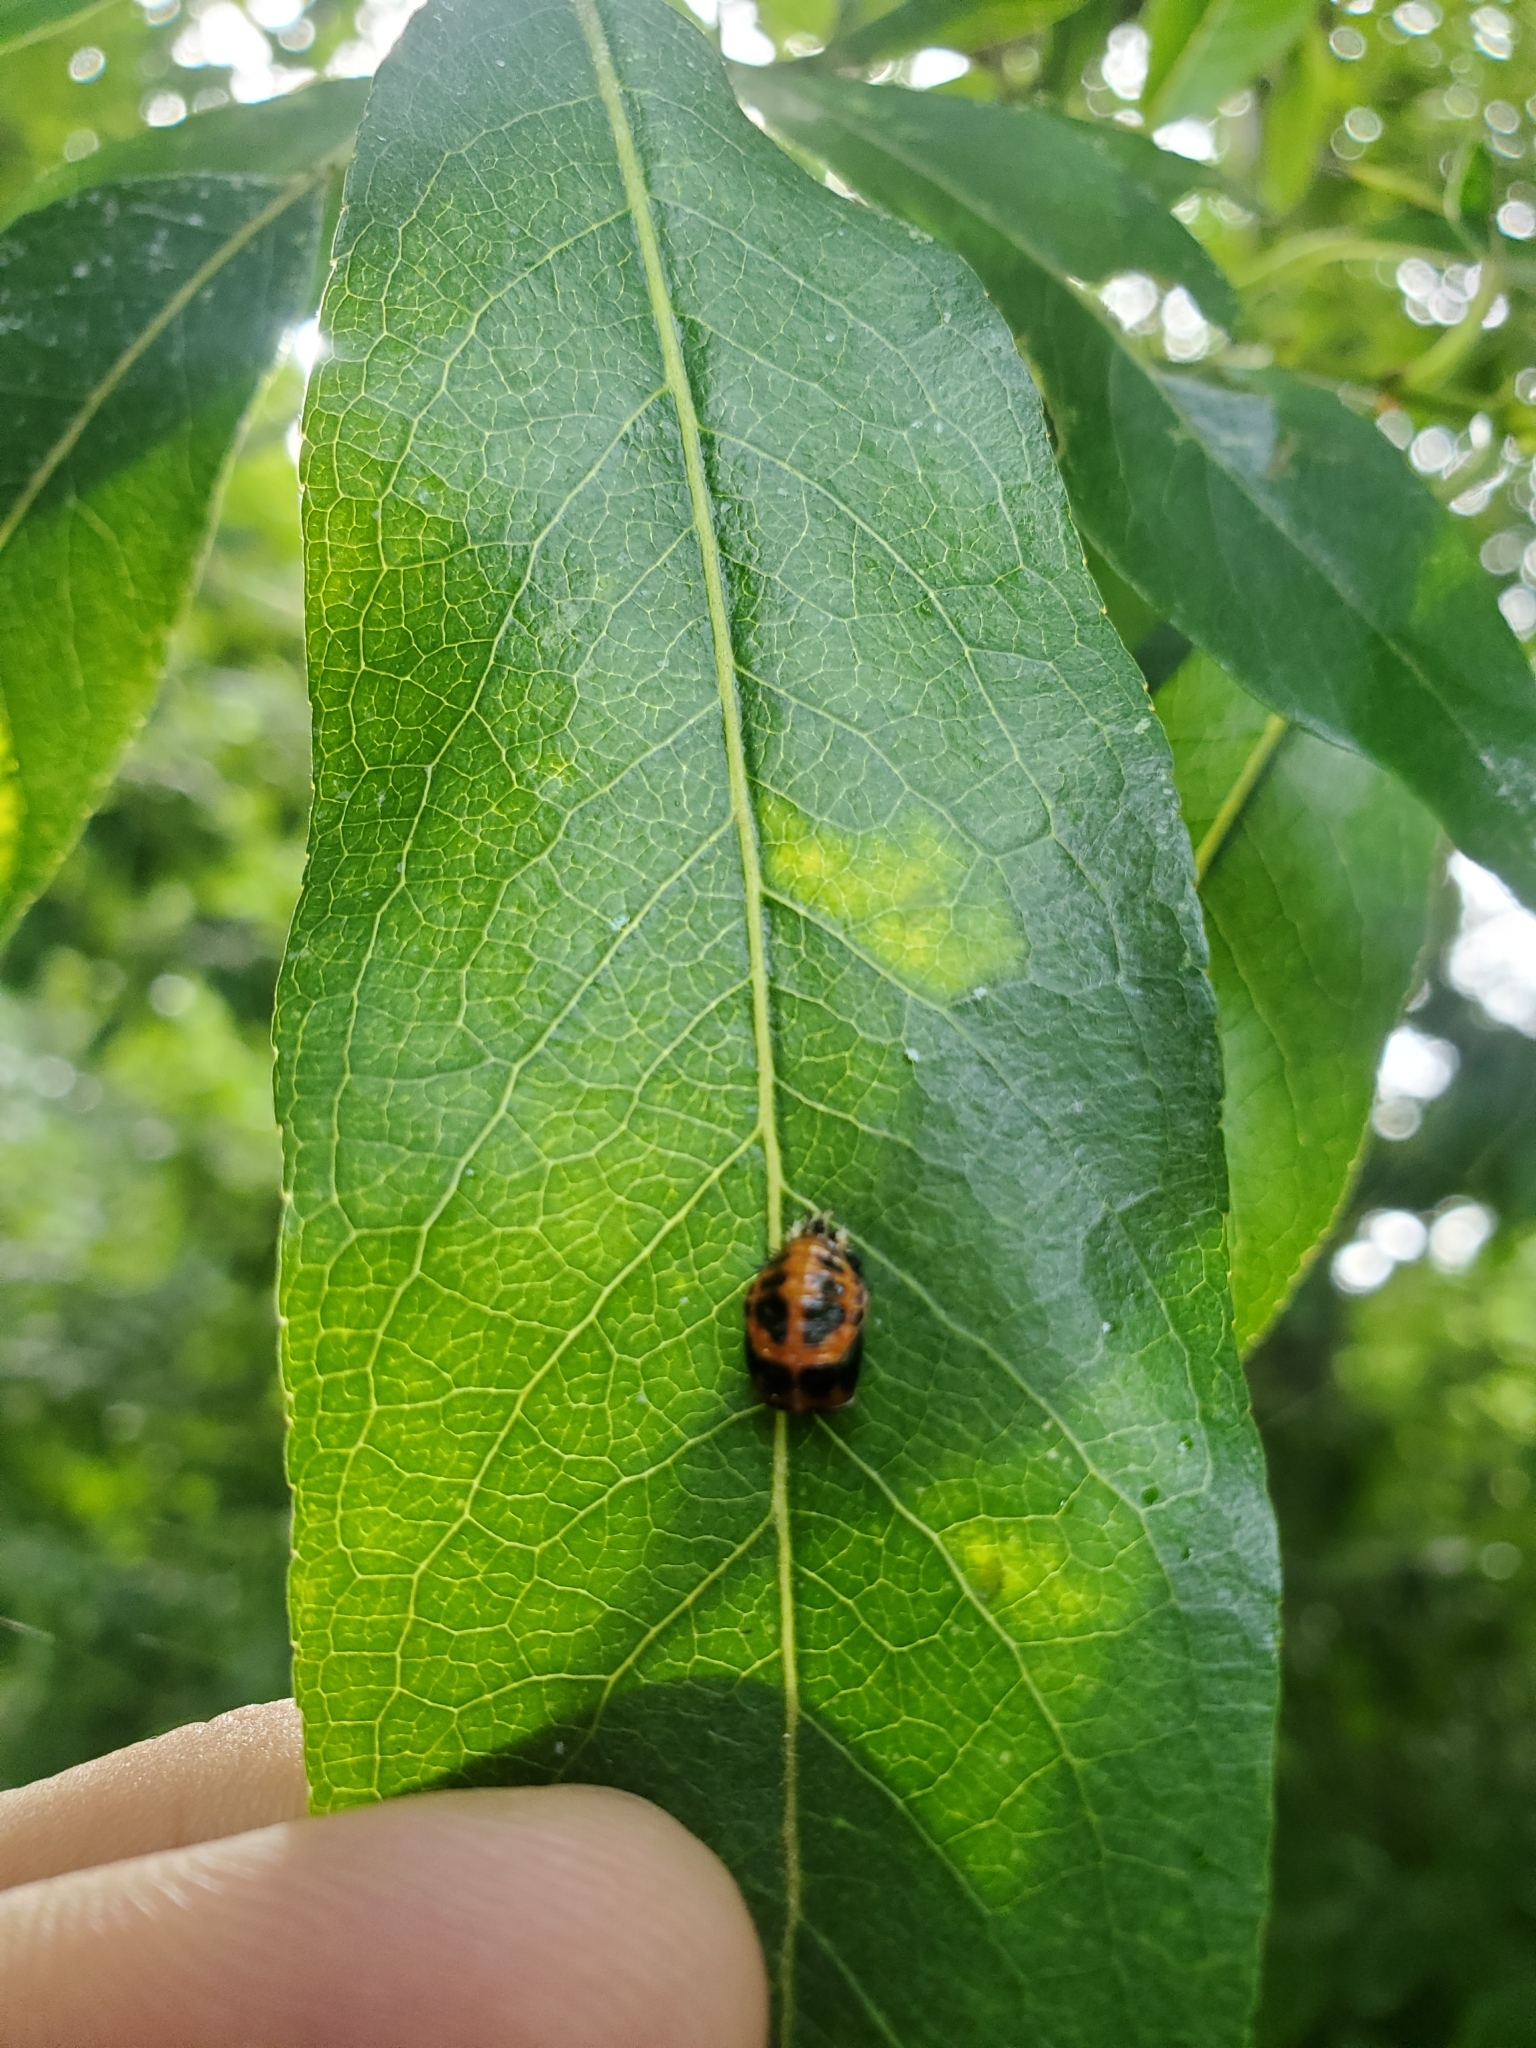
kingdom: Animalia
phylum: Arthropoda
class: Insecta
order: Coleoptera
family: Coccinellidae
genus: Harmonia
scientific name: Harmonia axyridis
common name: Harlequin ladybird
